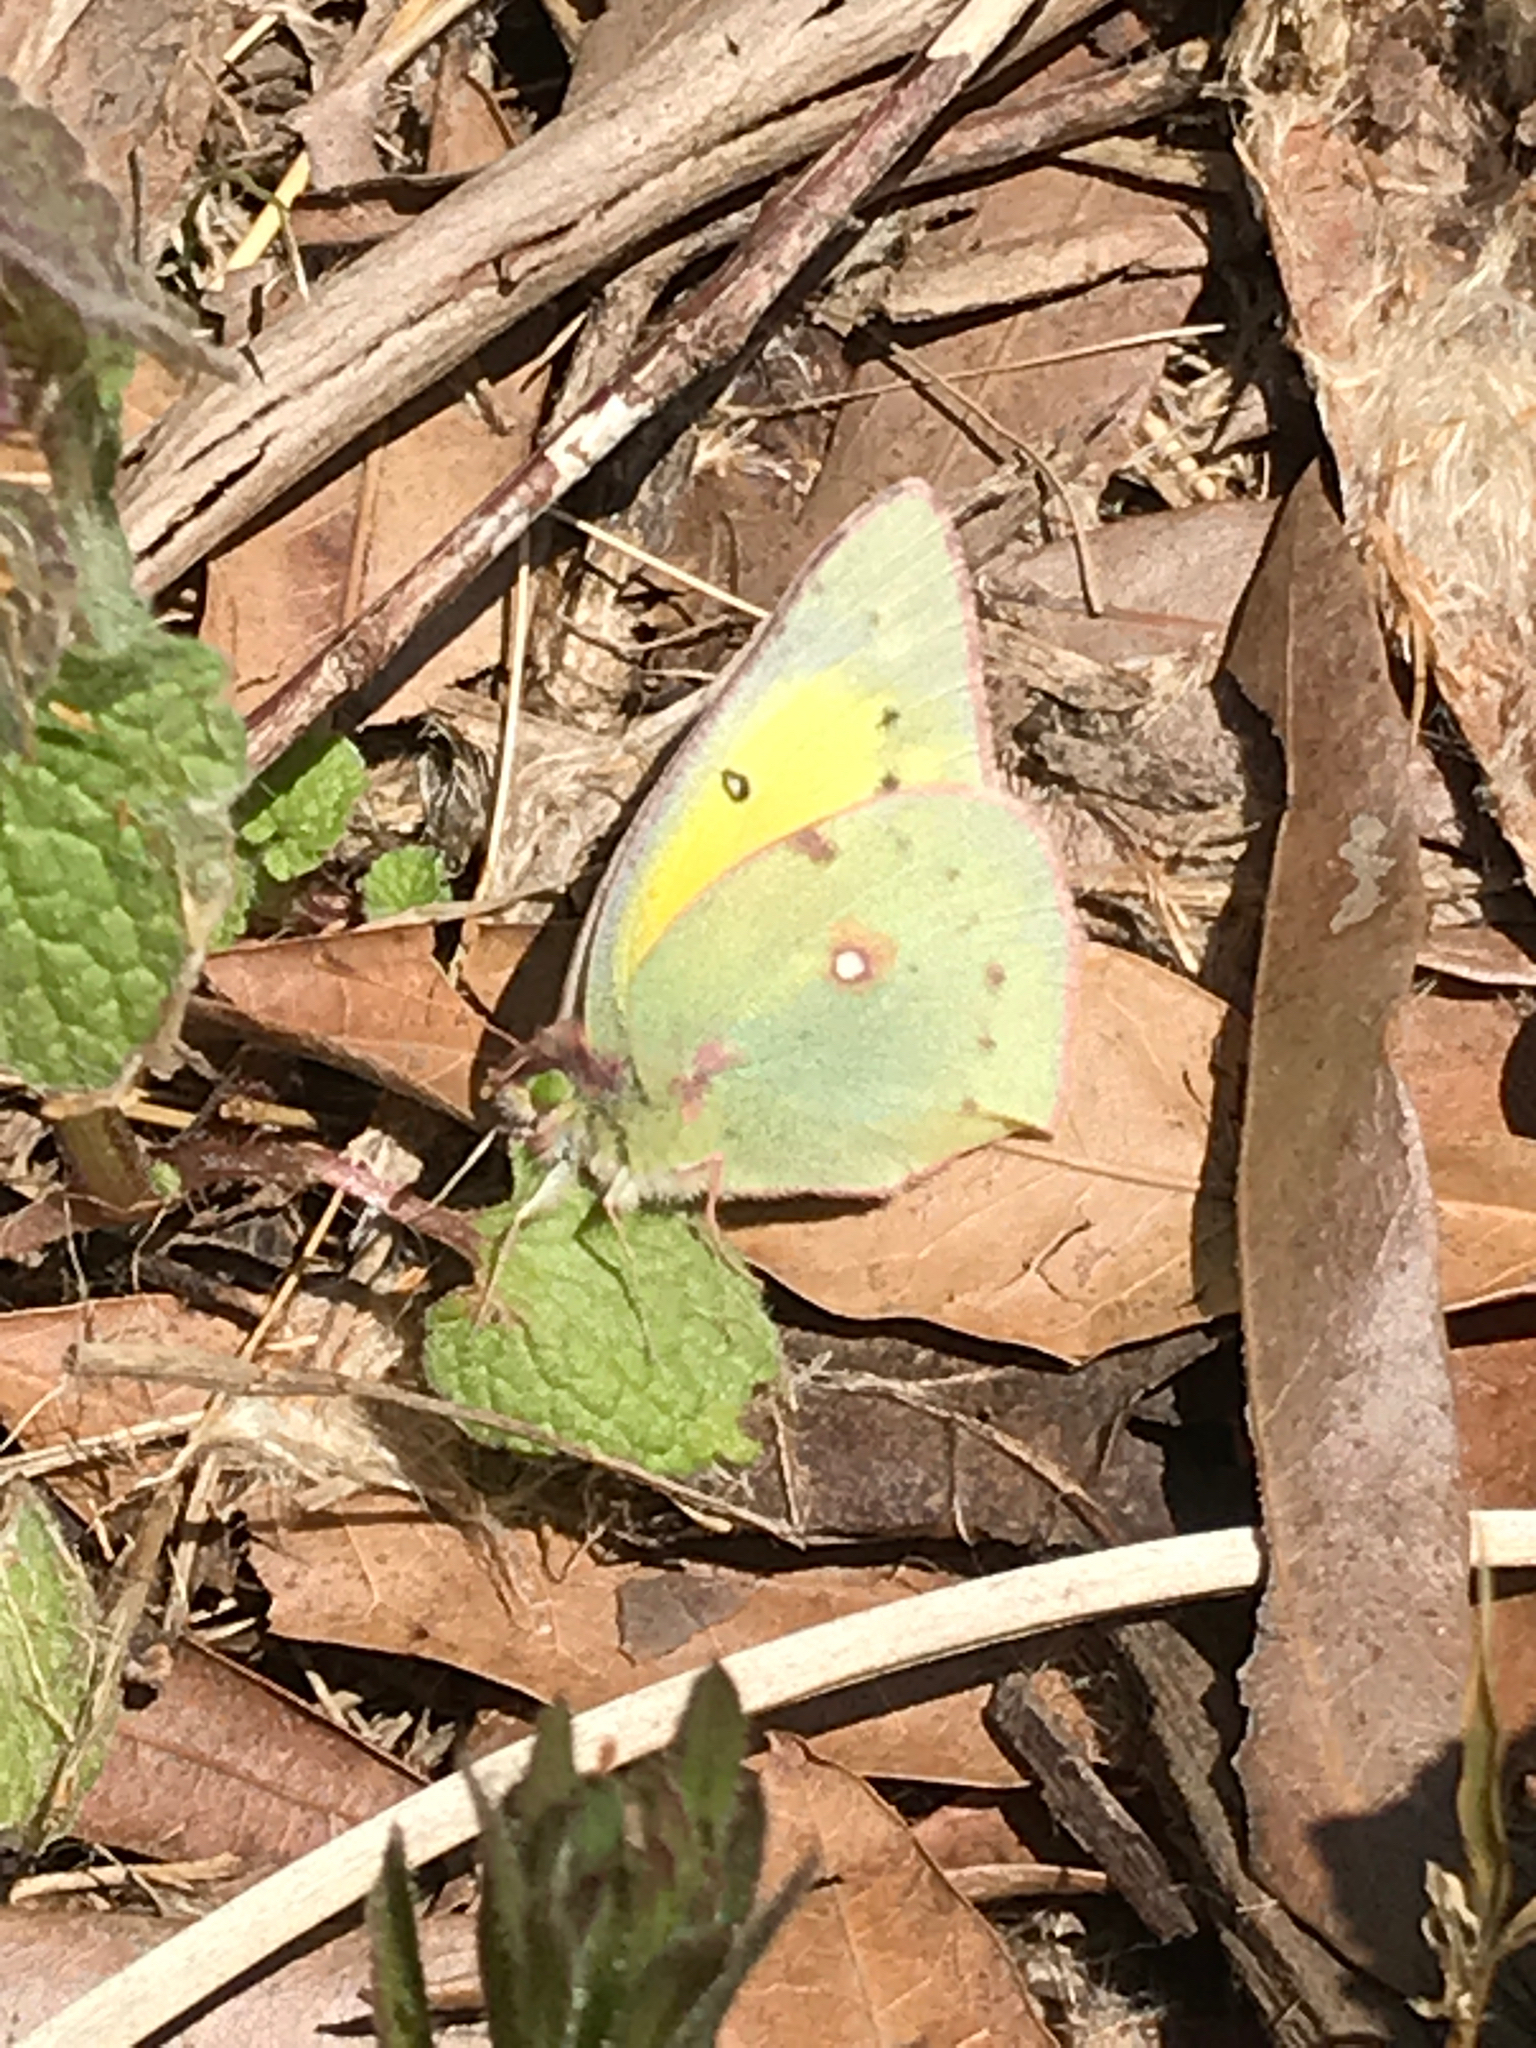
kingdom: Animalia
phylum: Arthropoda
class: Insecta
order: Lepidoptera
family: Pieridae
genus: Colias
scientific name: Colias eurytheme
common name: Alfalfa butterfly
